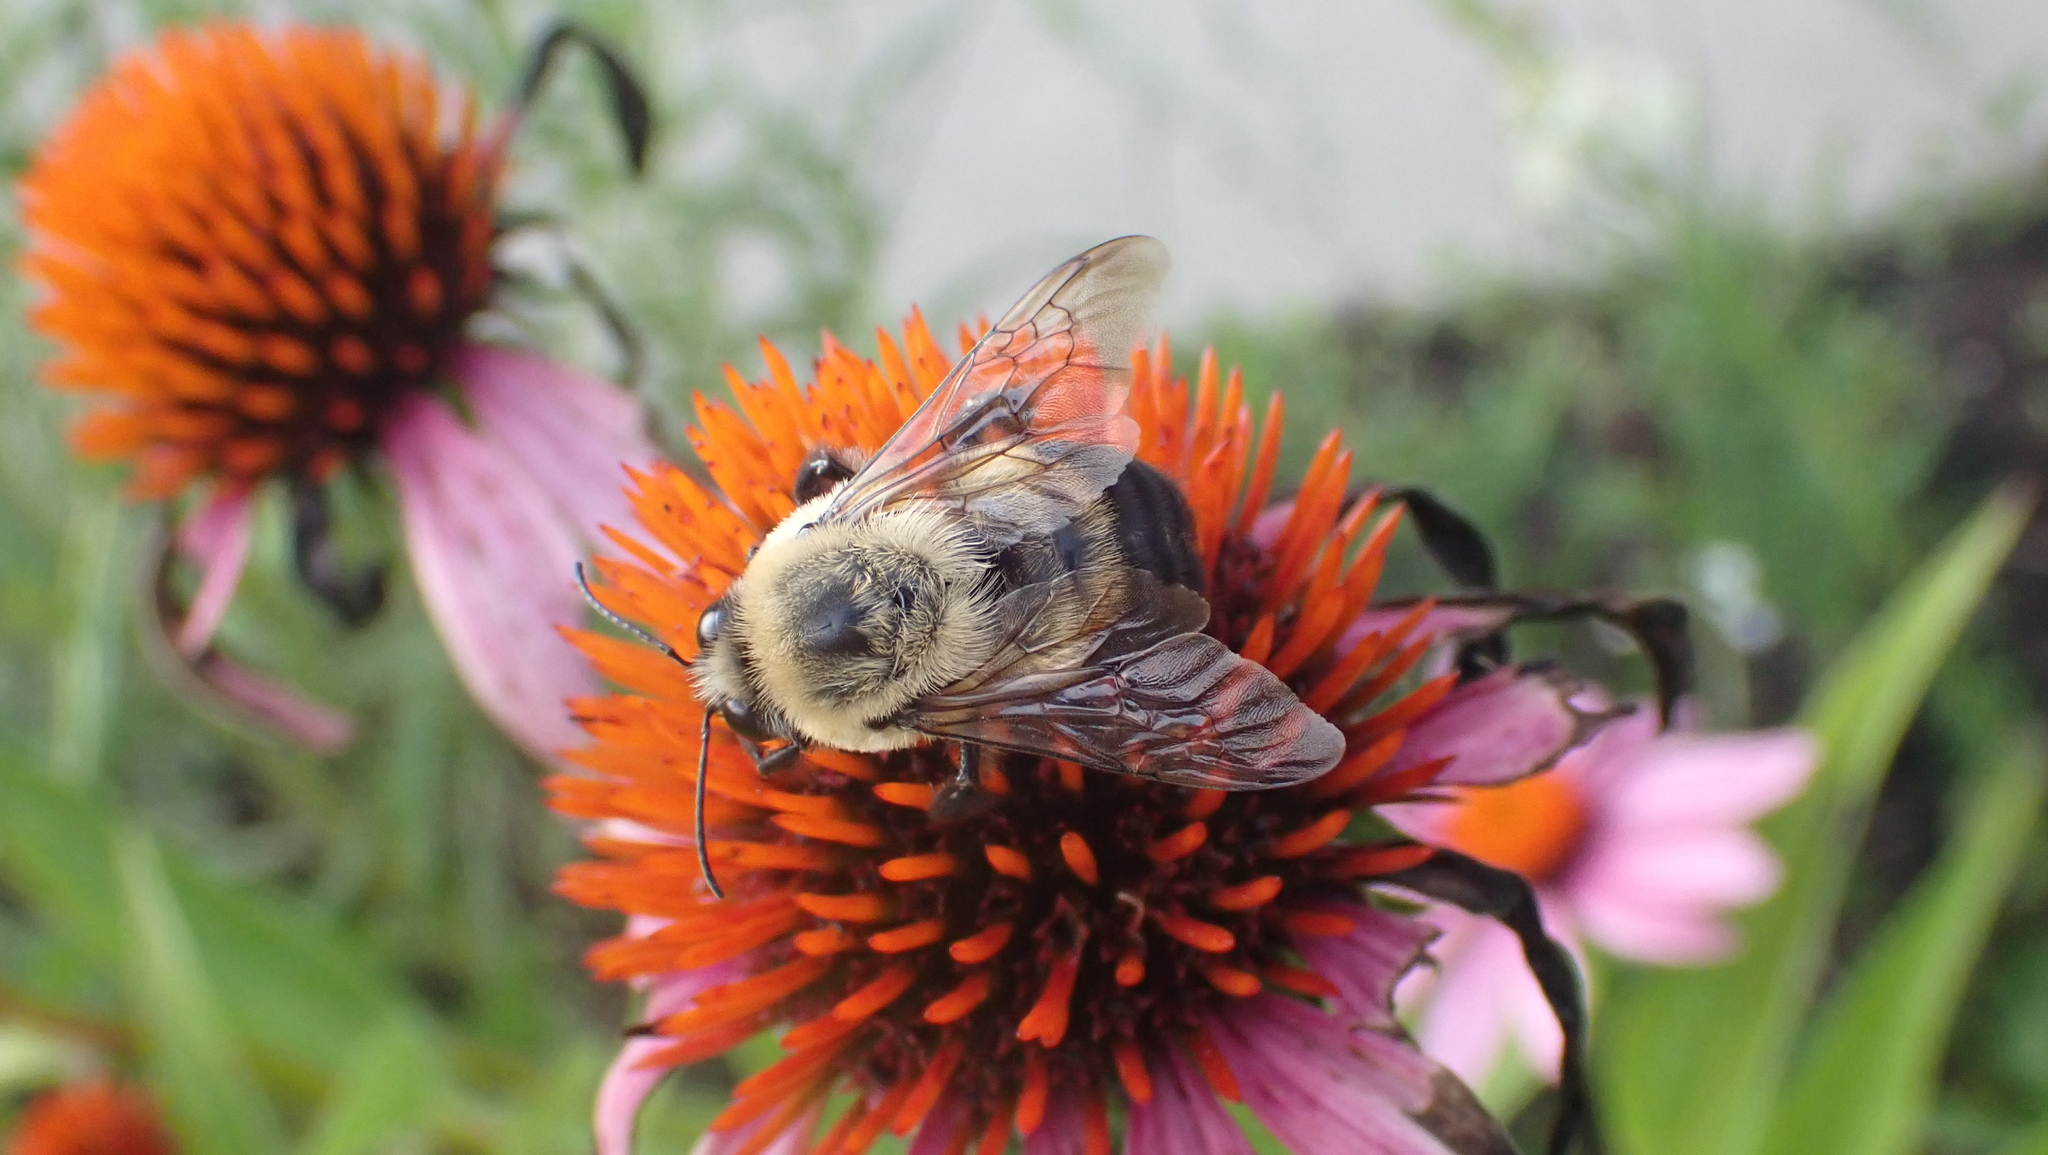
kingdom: Animalia
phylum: Arthropoda
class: Insecta
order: Hymenoptera
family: Apidae
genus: Bombus
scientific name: Bombus griseocollis
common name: Brown-belted bumble bee
